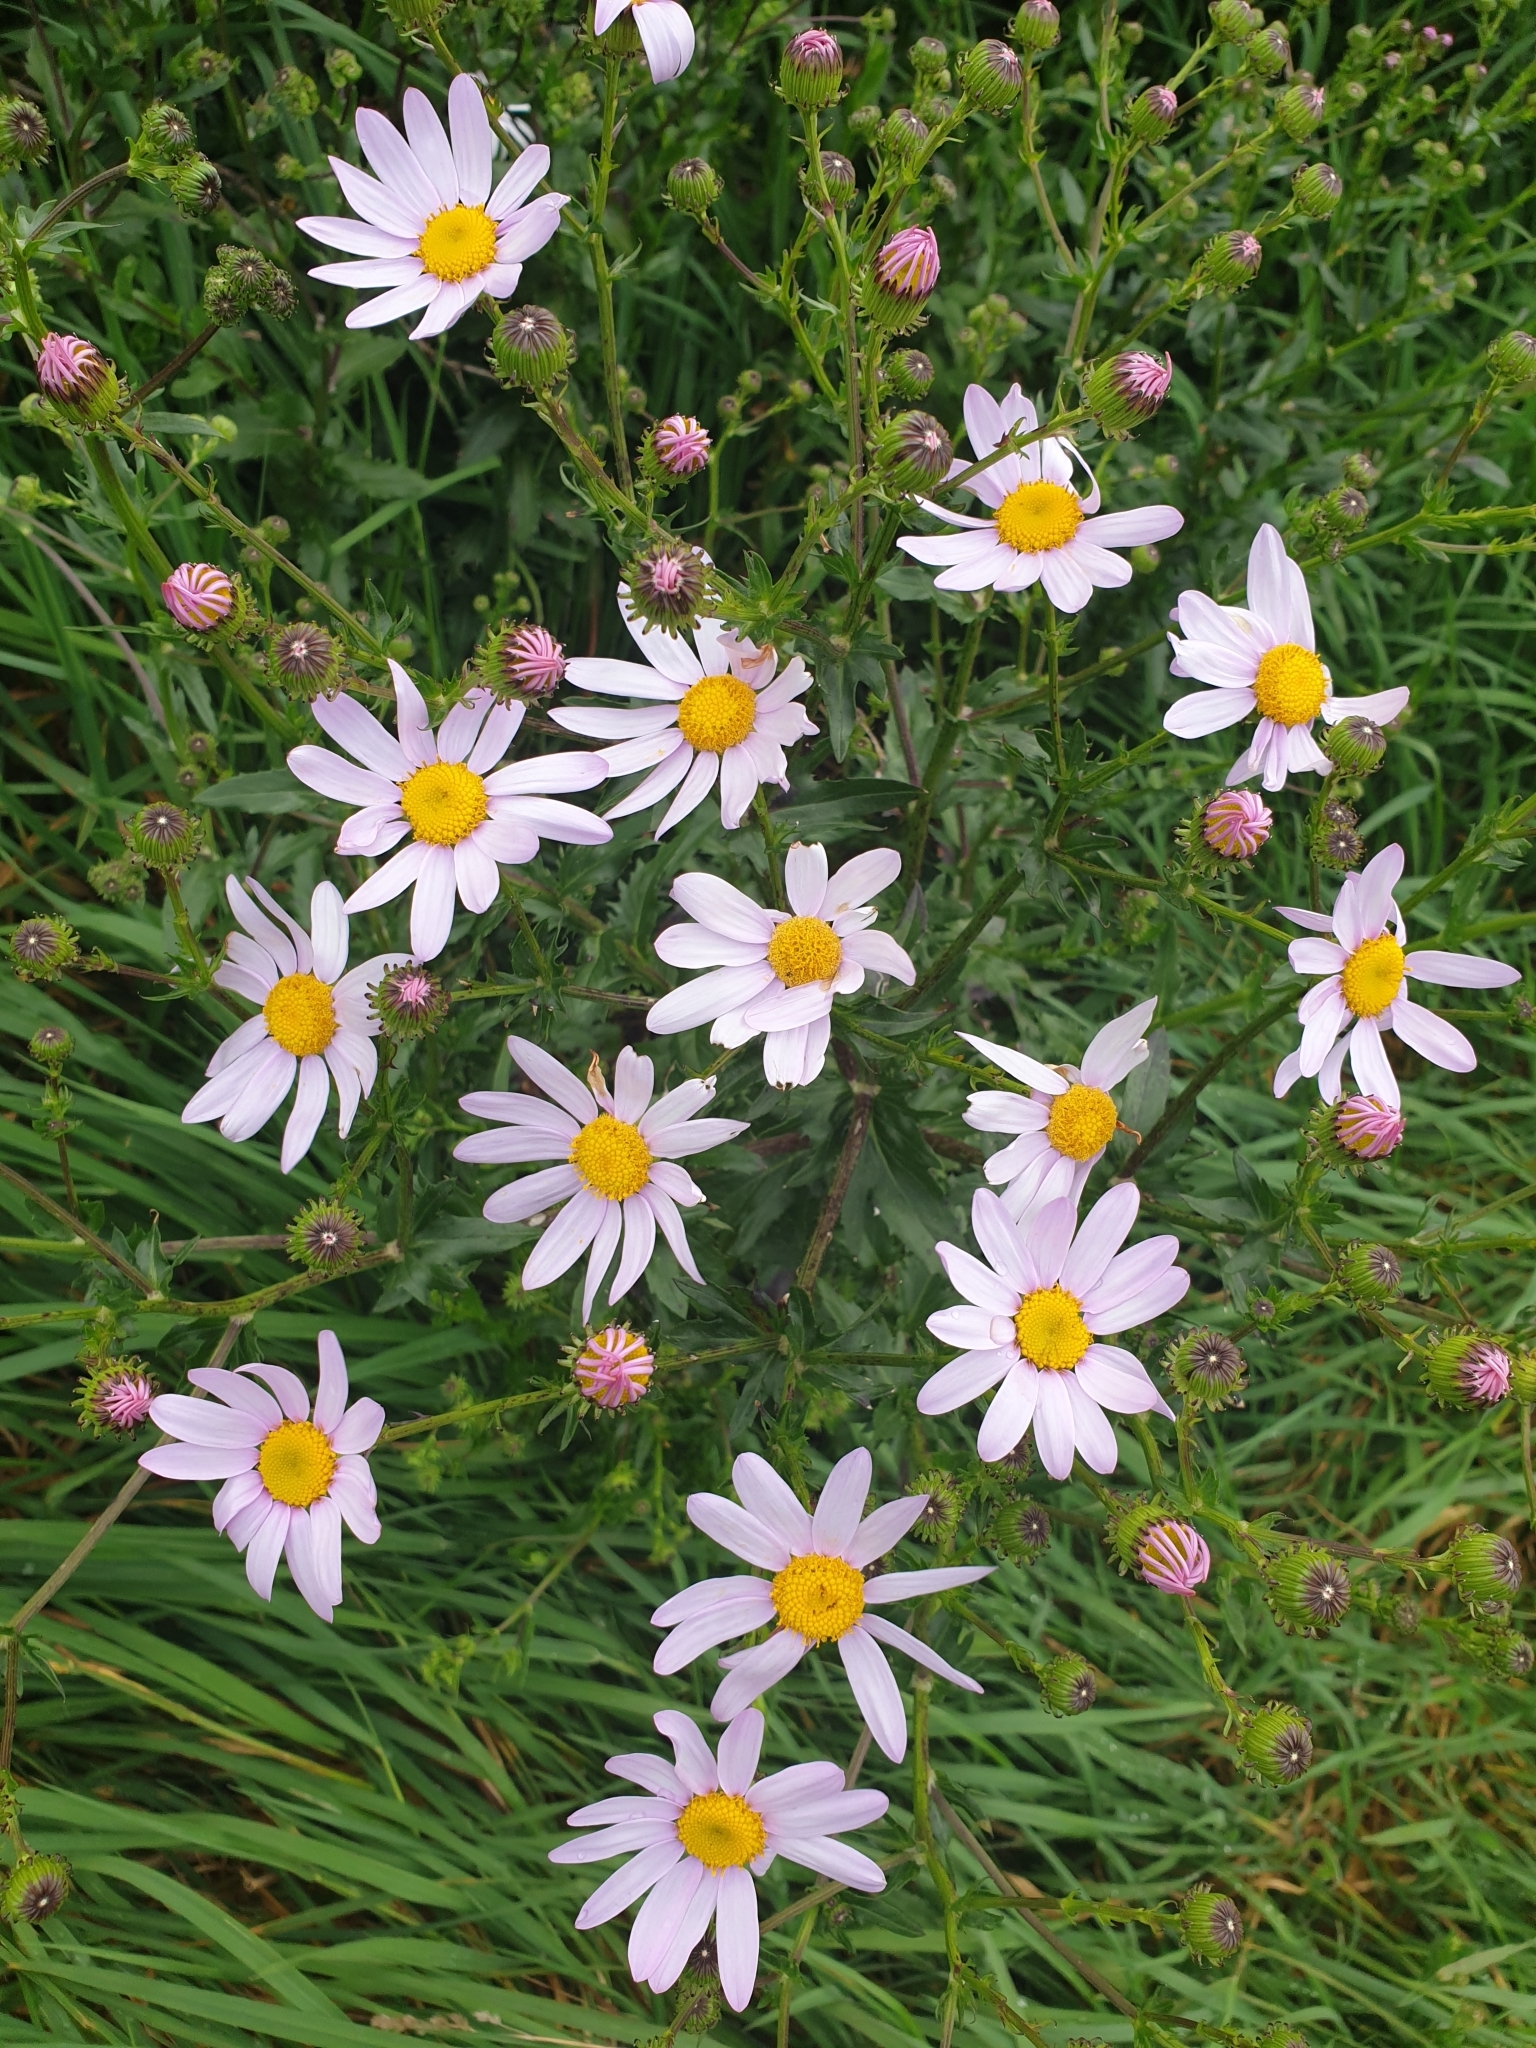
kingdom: Plantae
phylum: Tracheophyta
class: Magnoliopsida
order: Asterales
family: Asteraceae
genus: Senecio
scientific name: Senecio glastifolius
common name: Woad-leaved ragwort
